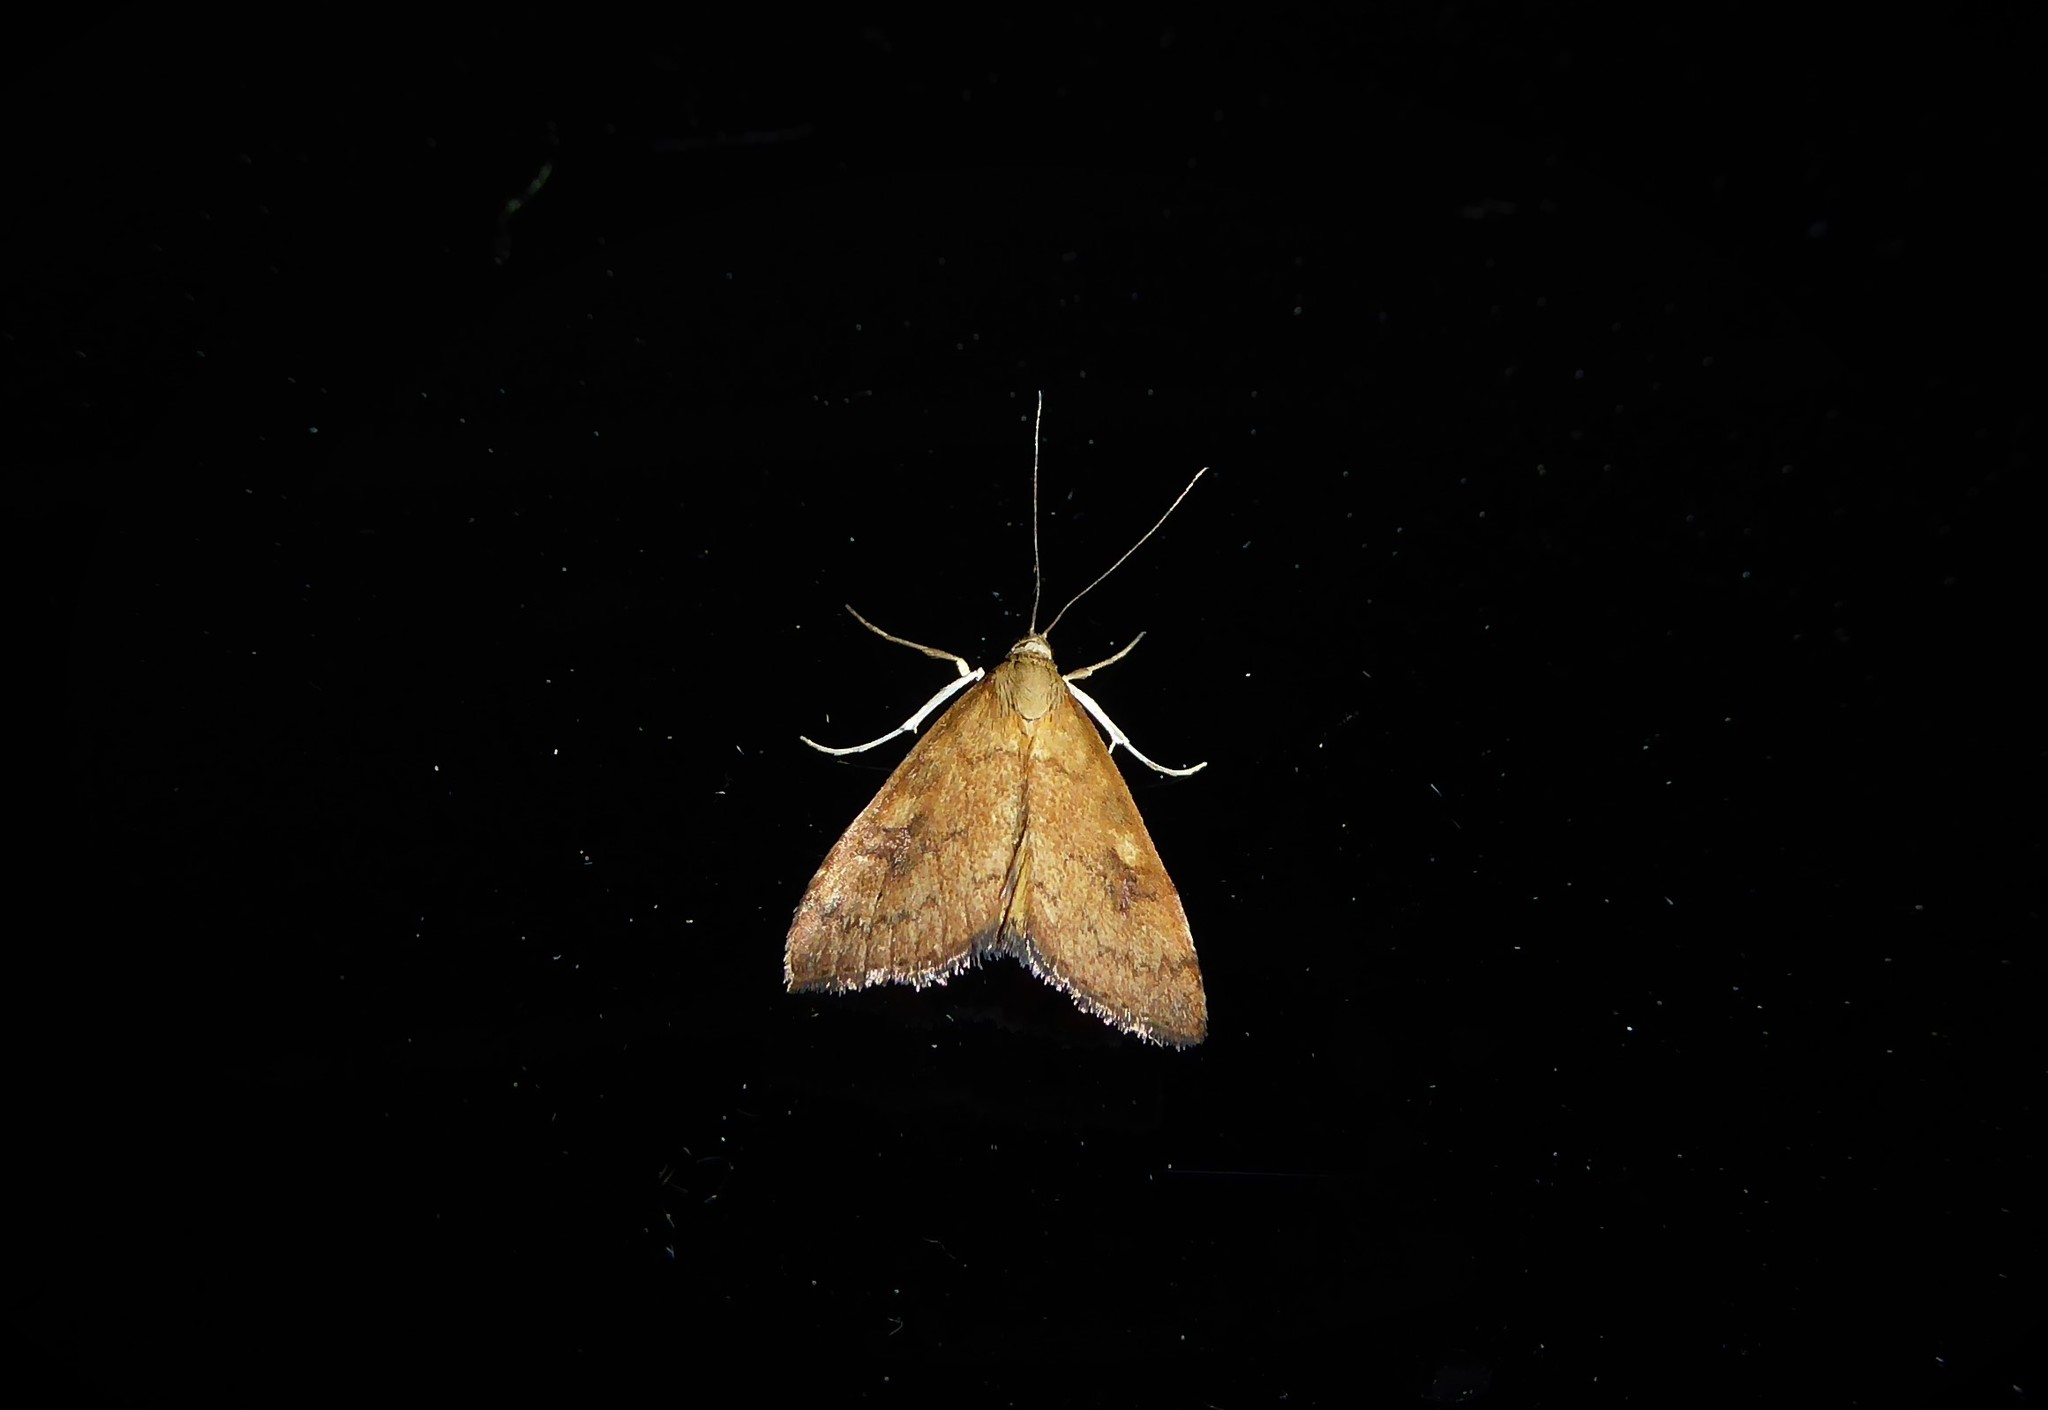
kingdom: Animalia
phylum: Arthropoda
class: Insecta
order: Lepidoptera
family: Crambidae
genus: Udea
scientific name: Udea Mnesictena flavidalis
